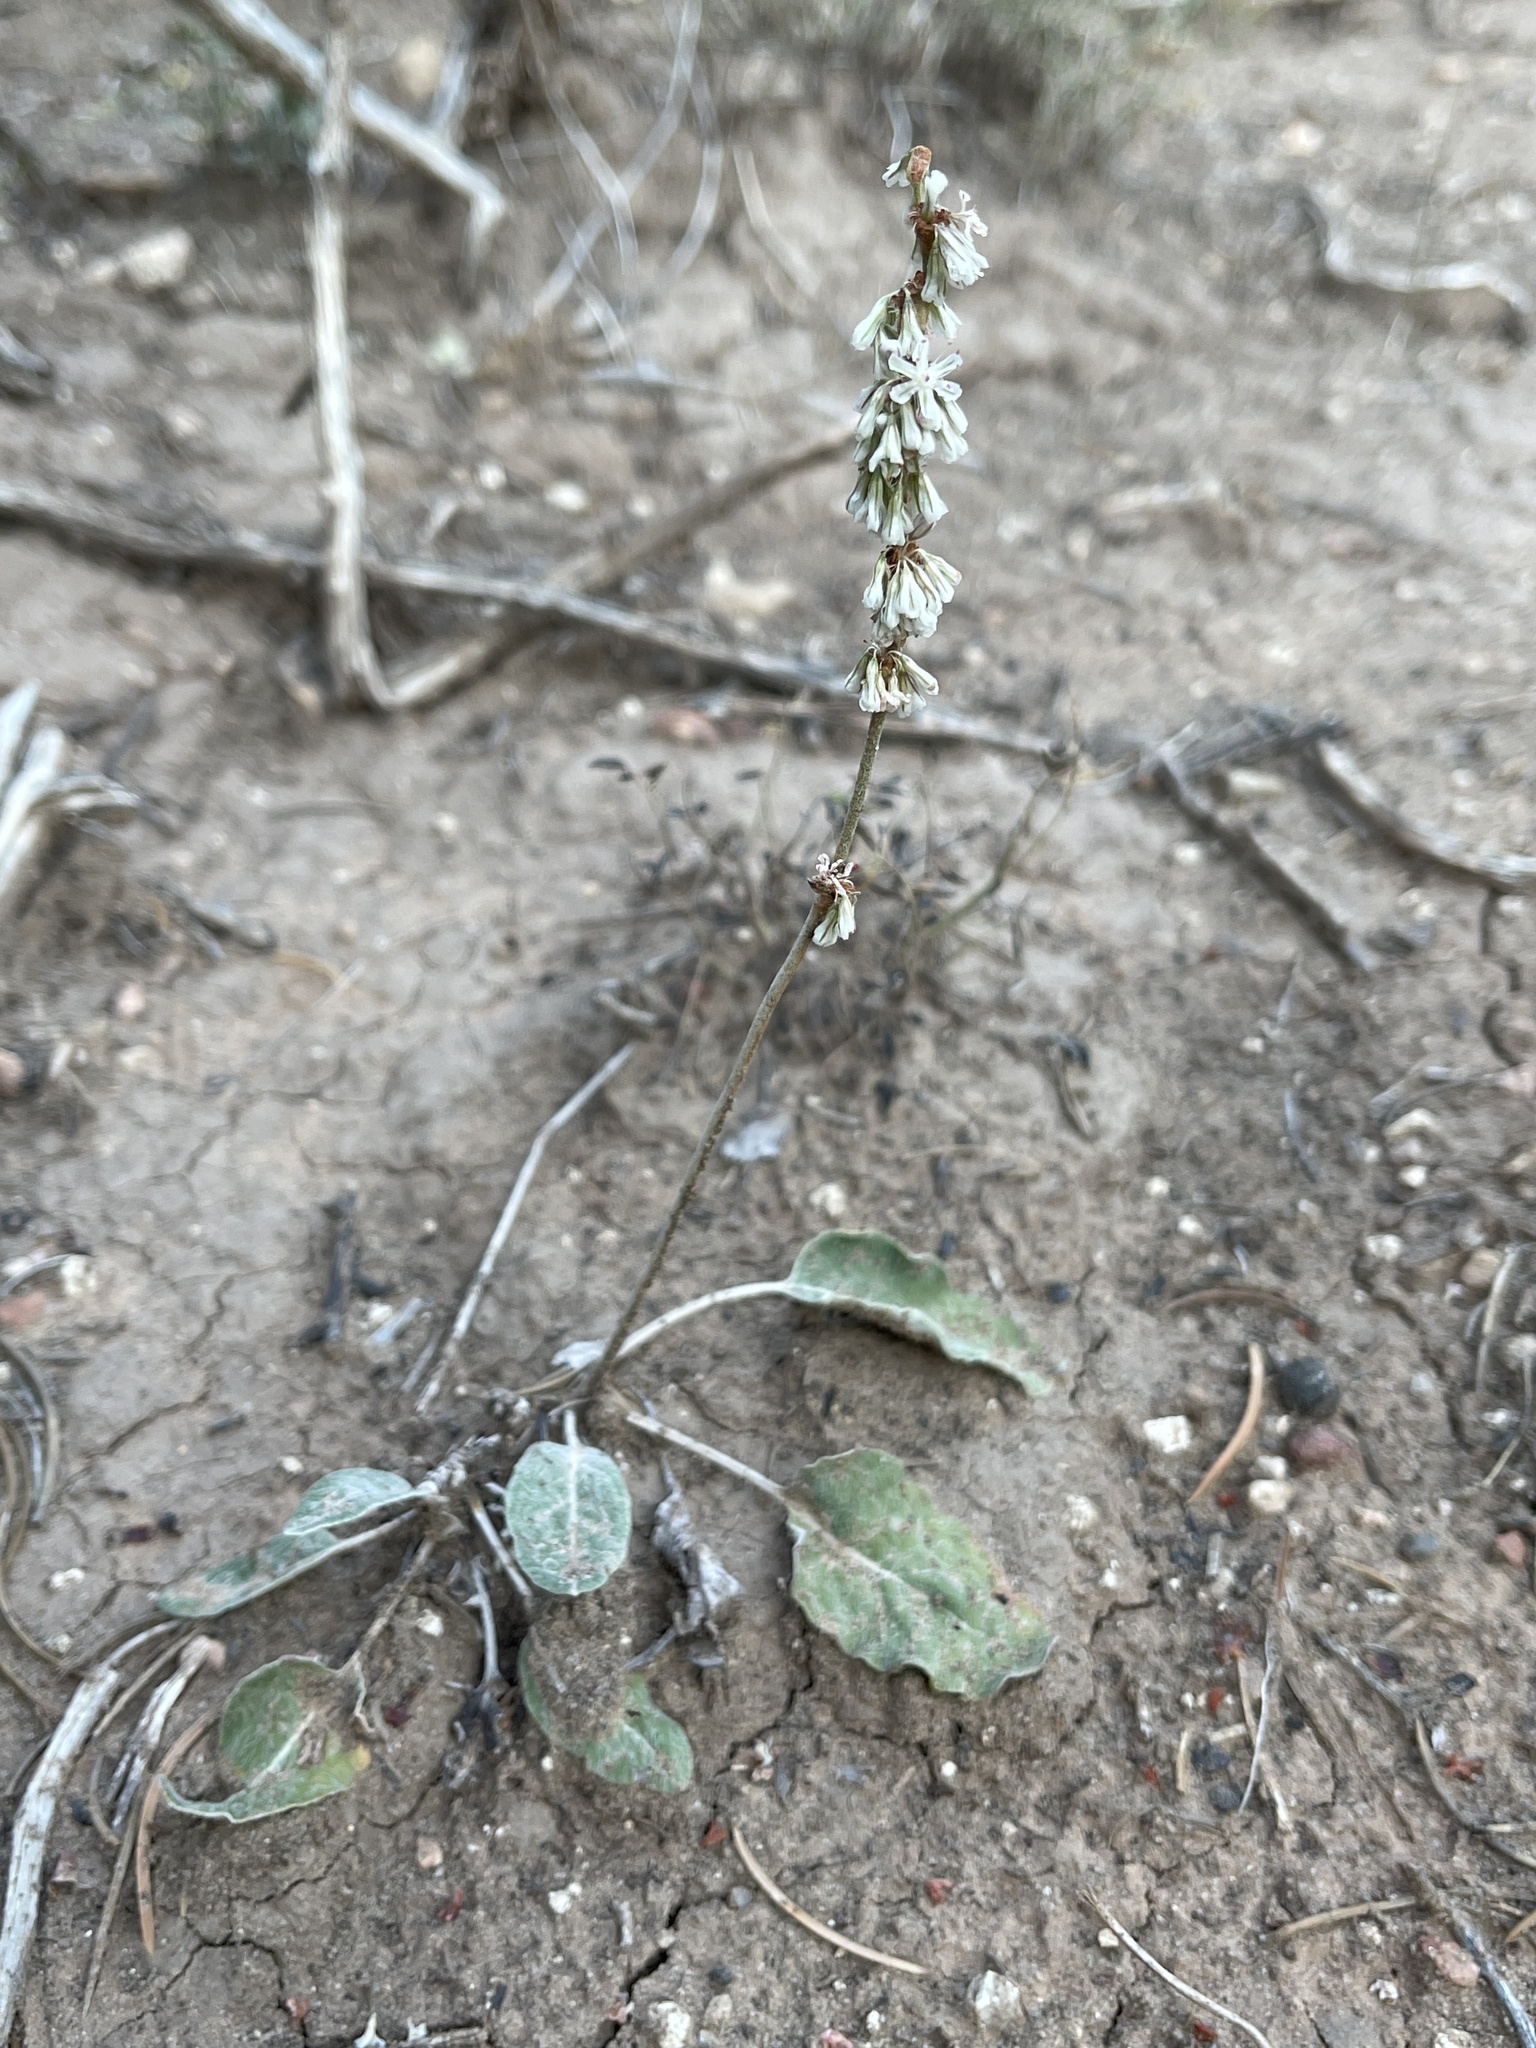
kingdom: Plantae
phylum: Tracheophyta
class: Magnoliopsida
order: Caryophyllales
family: Polygonaceae
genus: Eriogonum
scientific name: Eriogonum racemosum
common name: Redroot wild buckwheat
